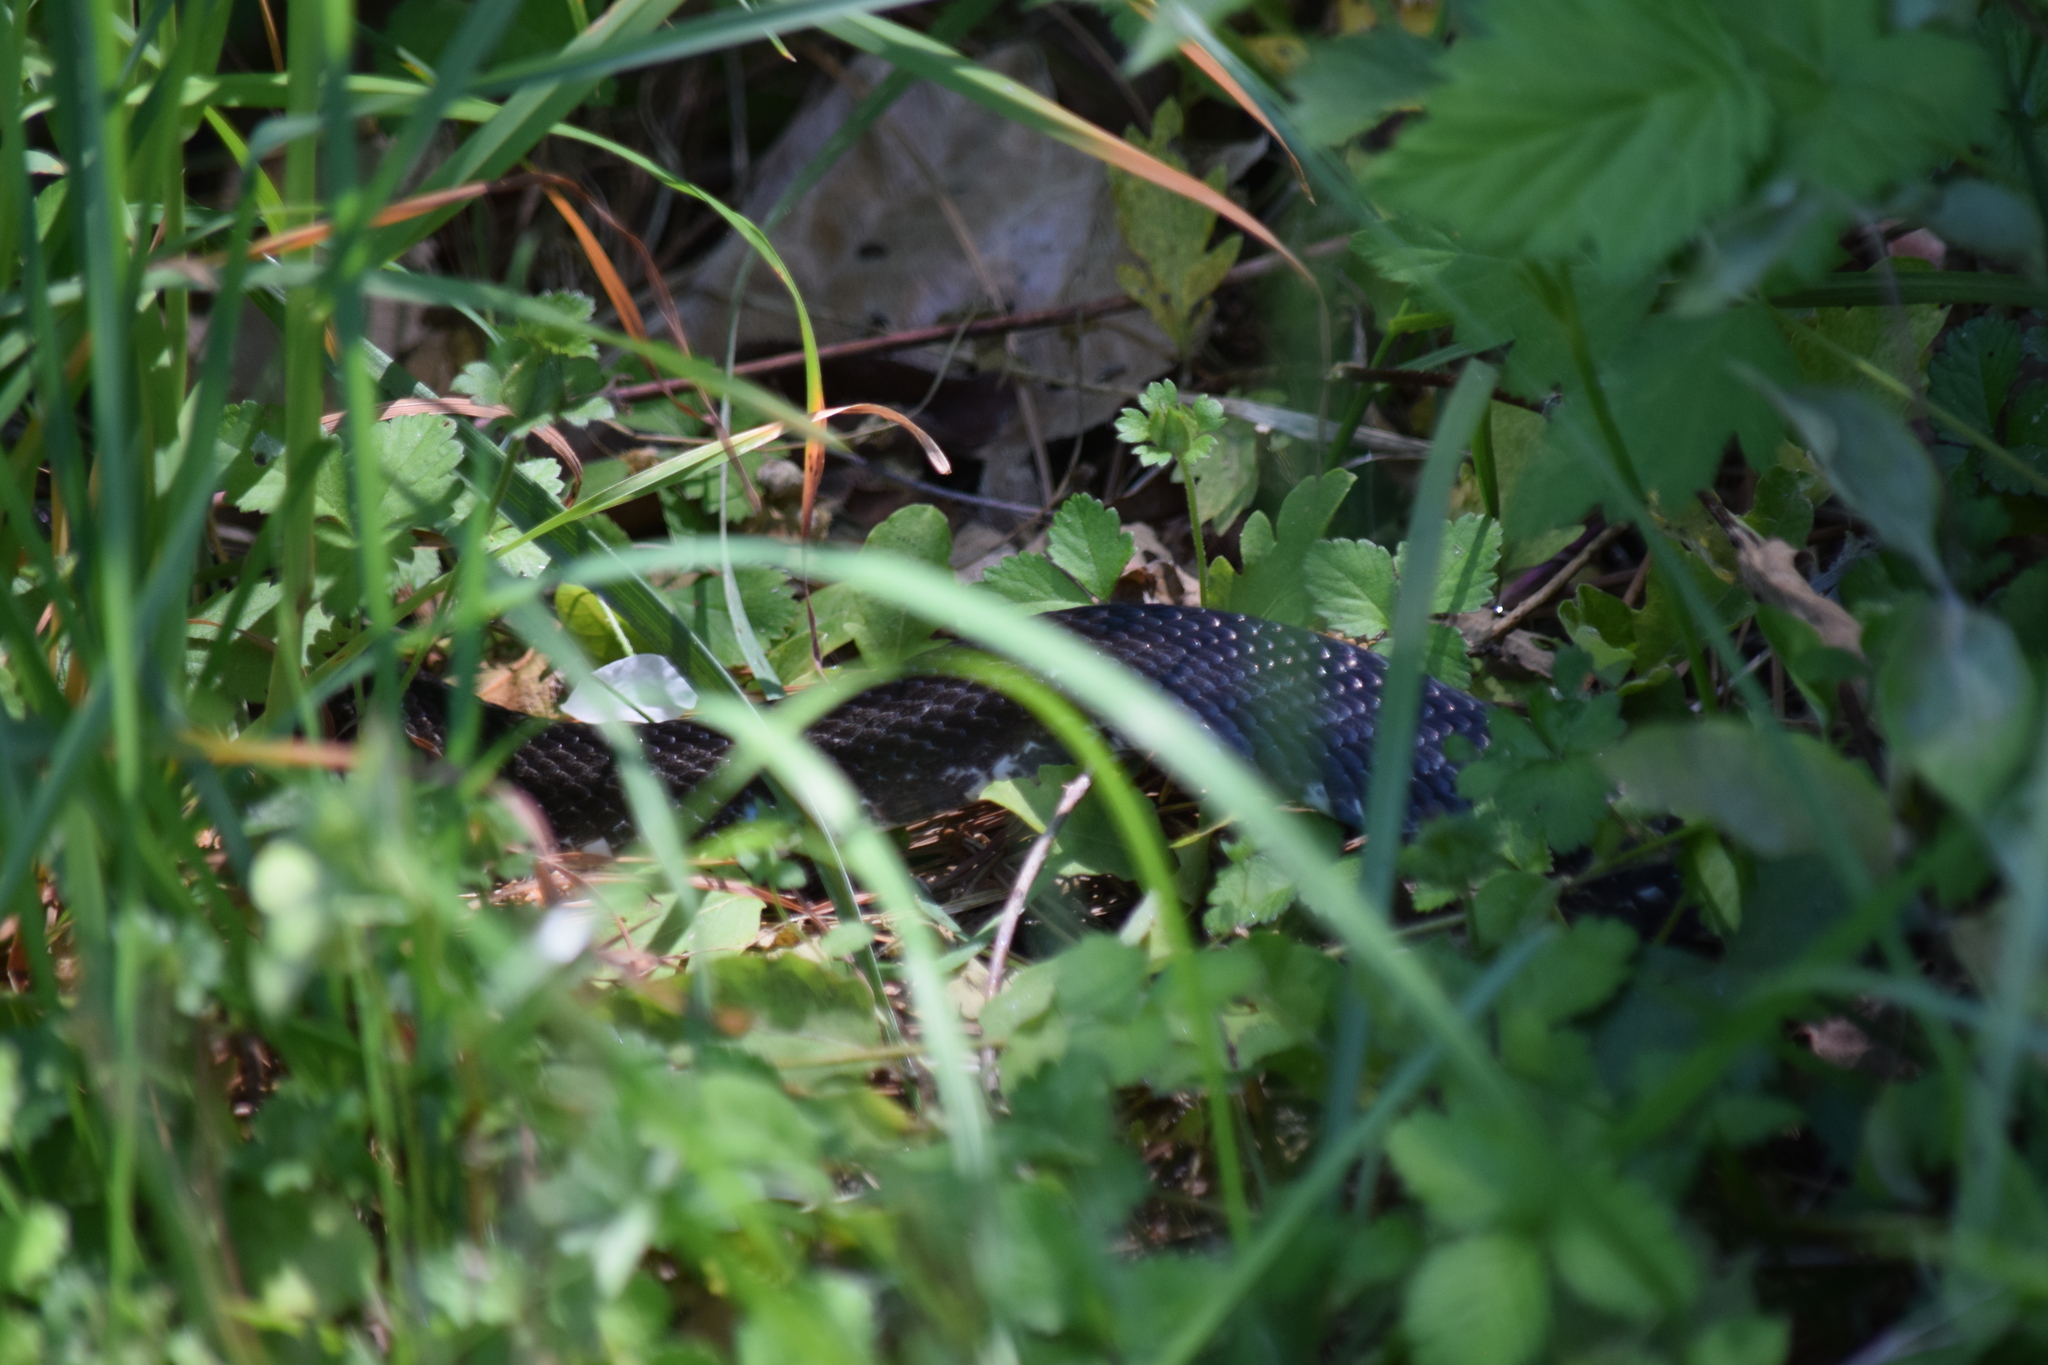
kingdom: Animalia
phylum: Chordata
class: Squamata
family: Colubridae
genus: Pantherophis
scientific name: Pantherophis alleghaniensis
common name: Eastern rat snake
